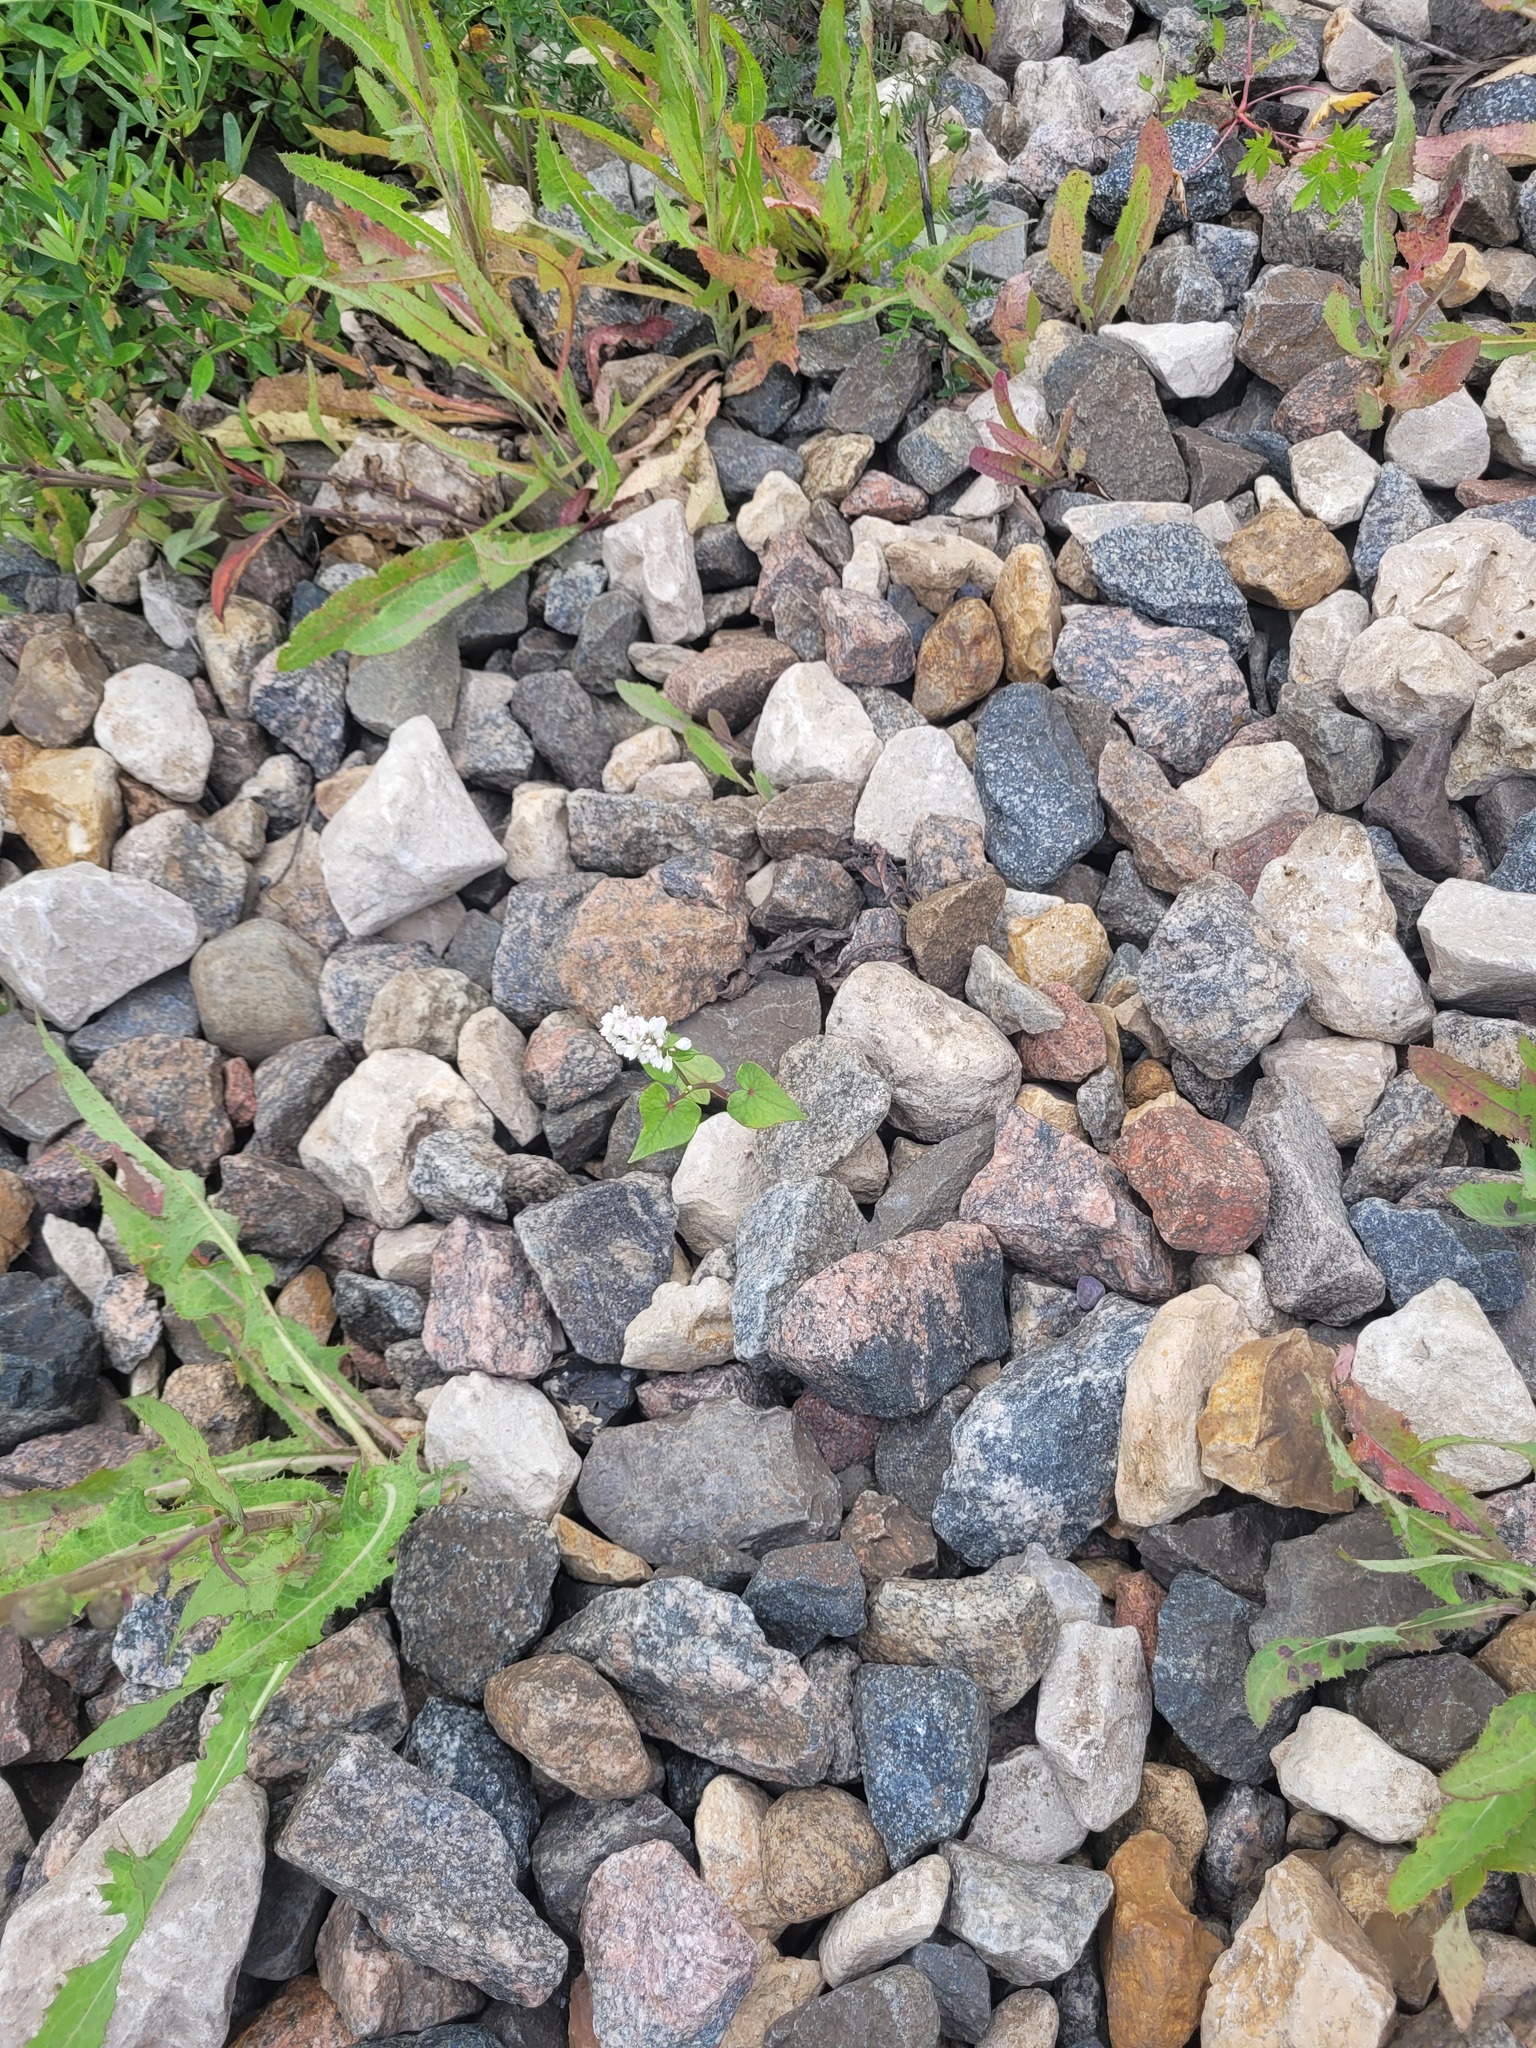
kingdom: Plantae
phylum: Tracheophyta
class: Magnoliopsida
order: Caryophyllales
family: Polygonaceae
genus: Fagopyrum
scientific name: Fagopyrum esculentum
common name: Buckwheat
